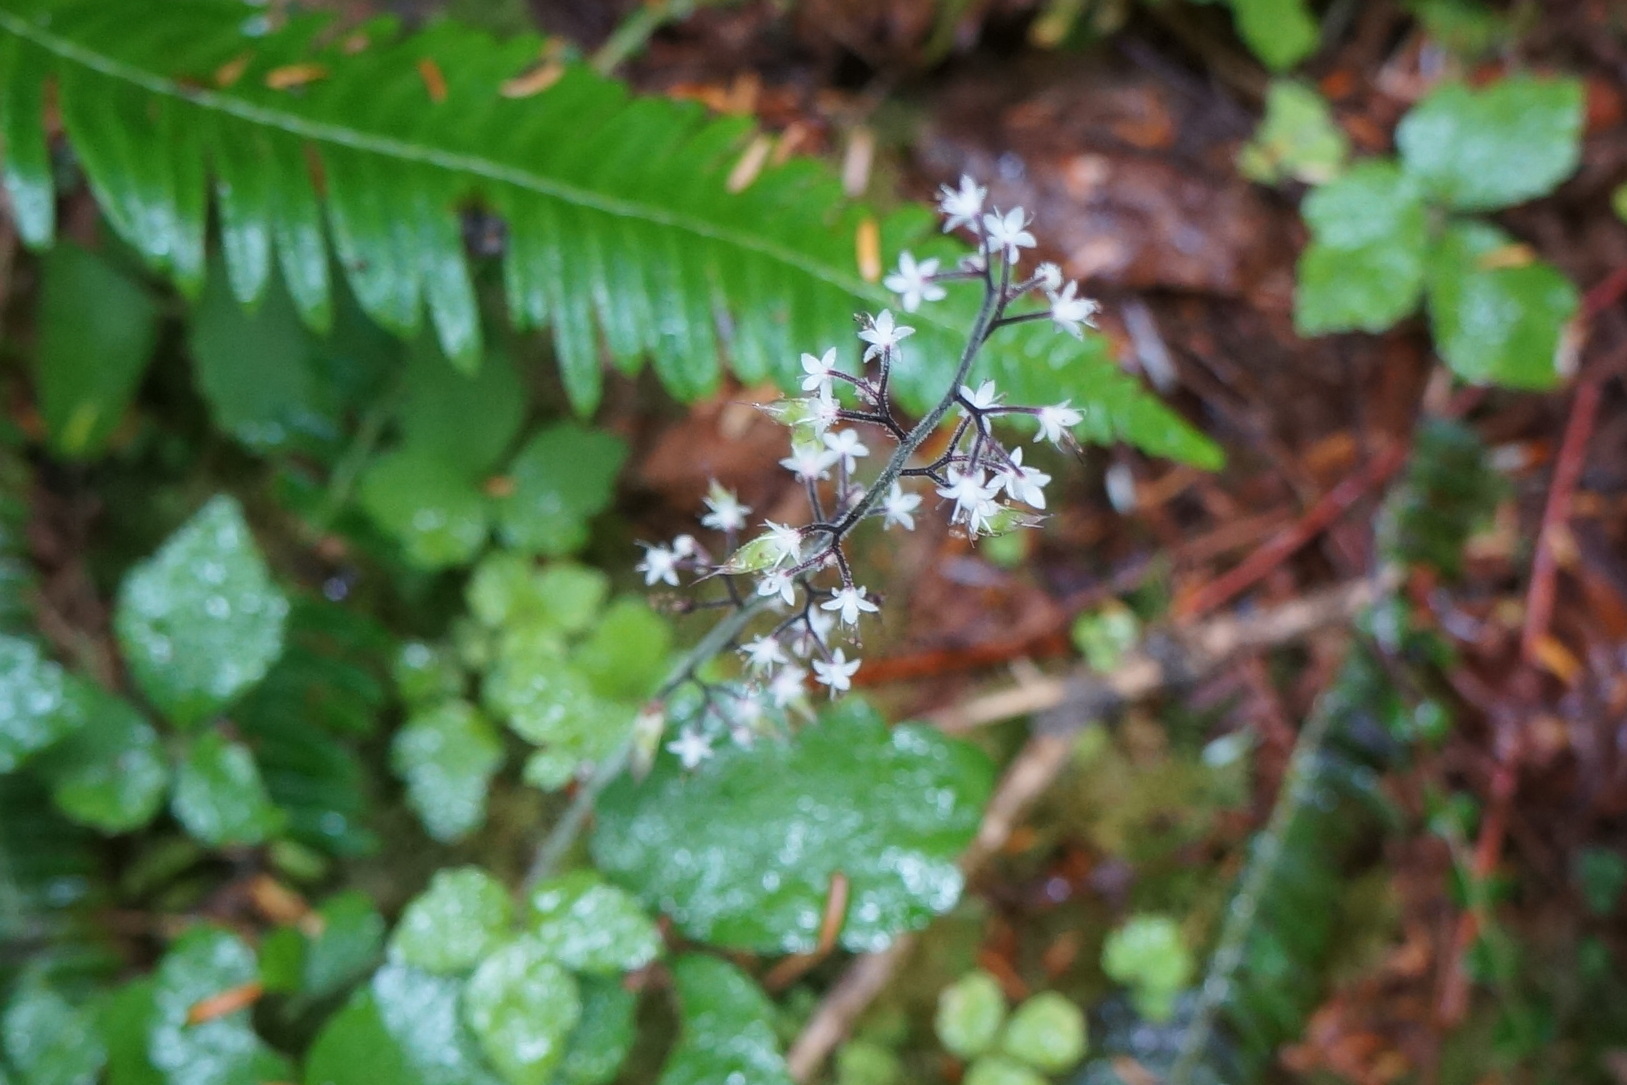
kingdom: Plantae
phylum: Tracheophyta
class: Magnoliopsida
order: Saxifragales
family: Saxifragaceae
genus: Tiarella
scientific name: Tiarella trifoliata
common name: Sugar-scoop
